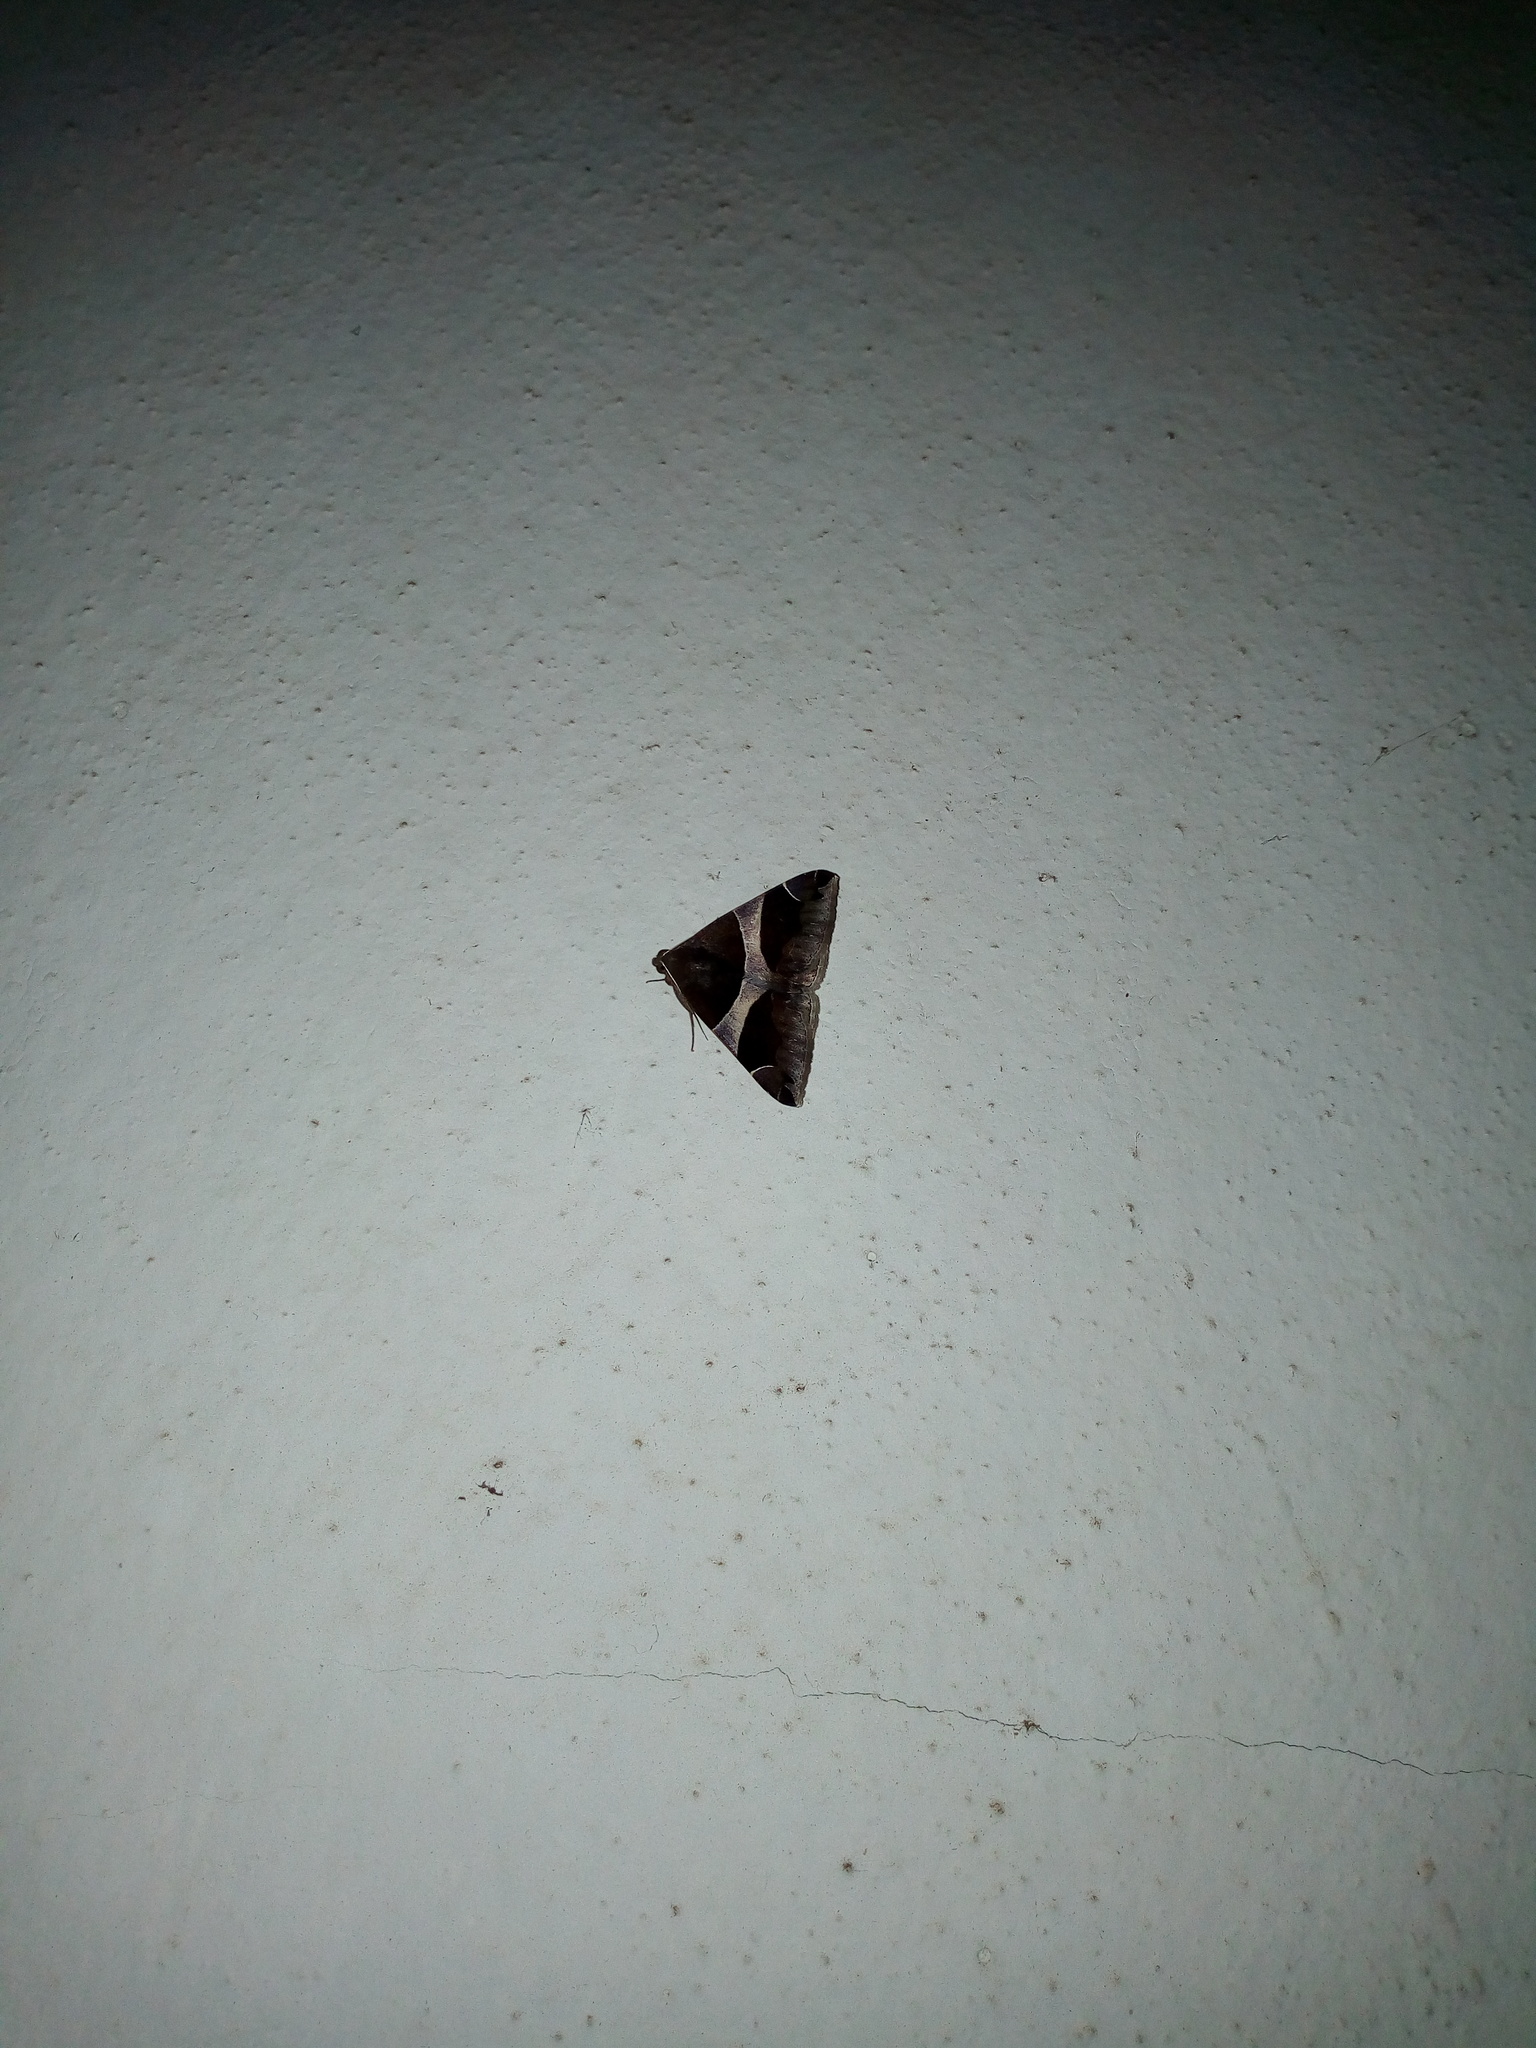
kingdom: Animalia
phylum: Arthropoda
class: Insecta
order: Lepidoptera
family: Erebidae
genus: Dysgonia
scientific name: Dysgonia torrida
